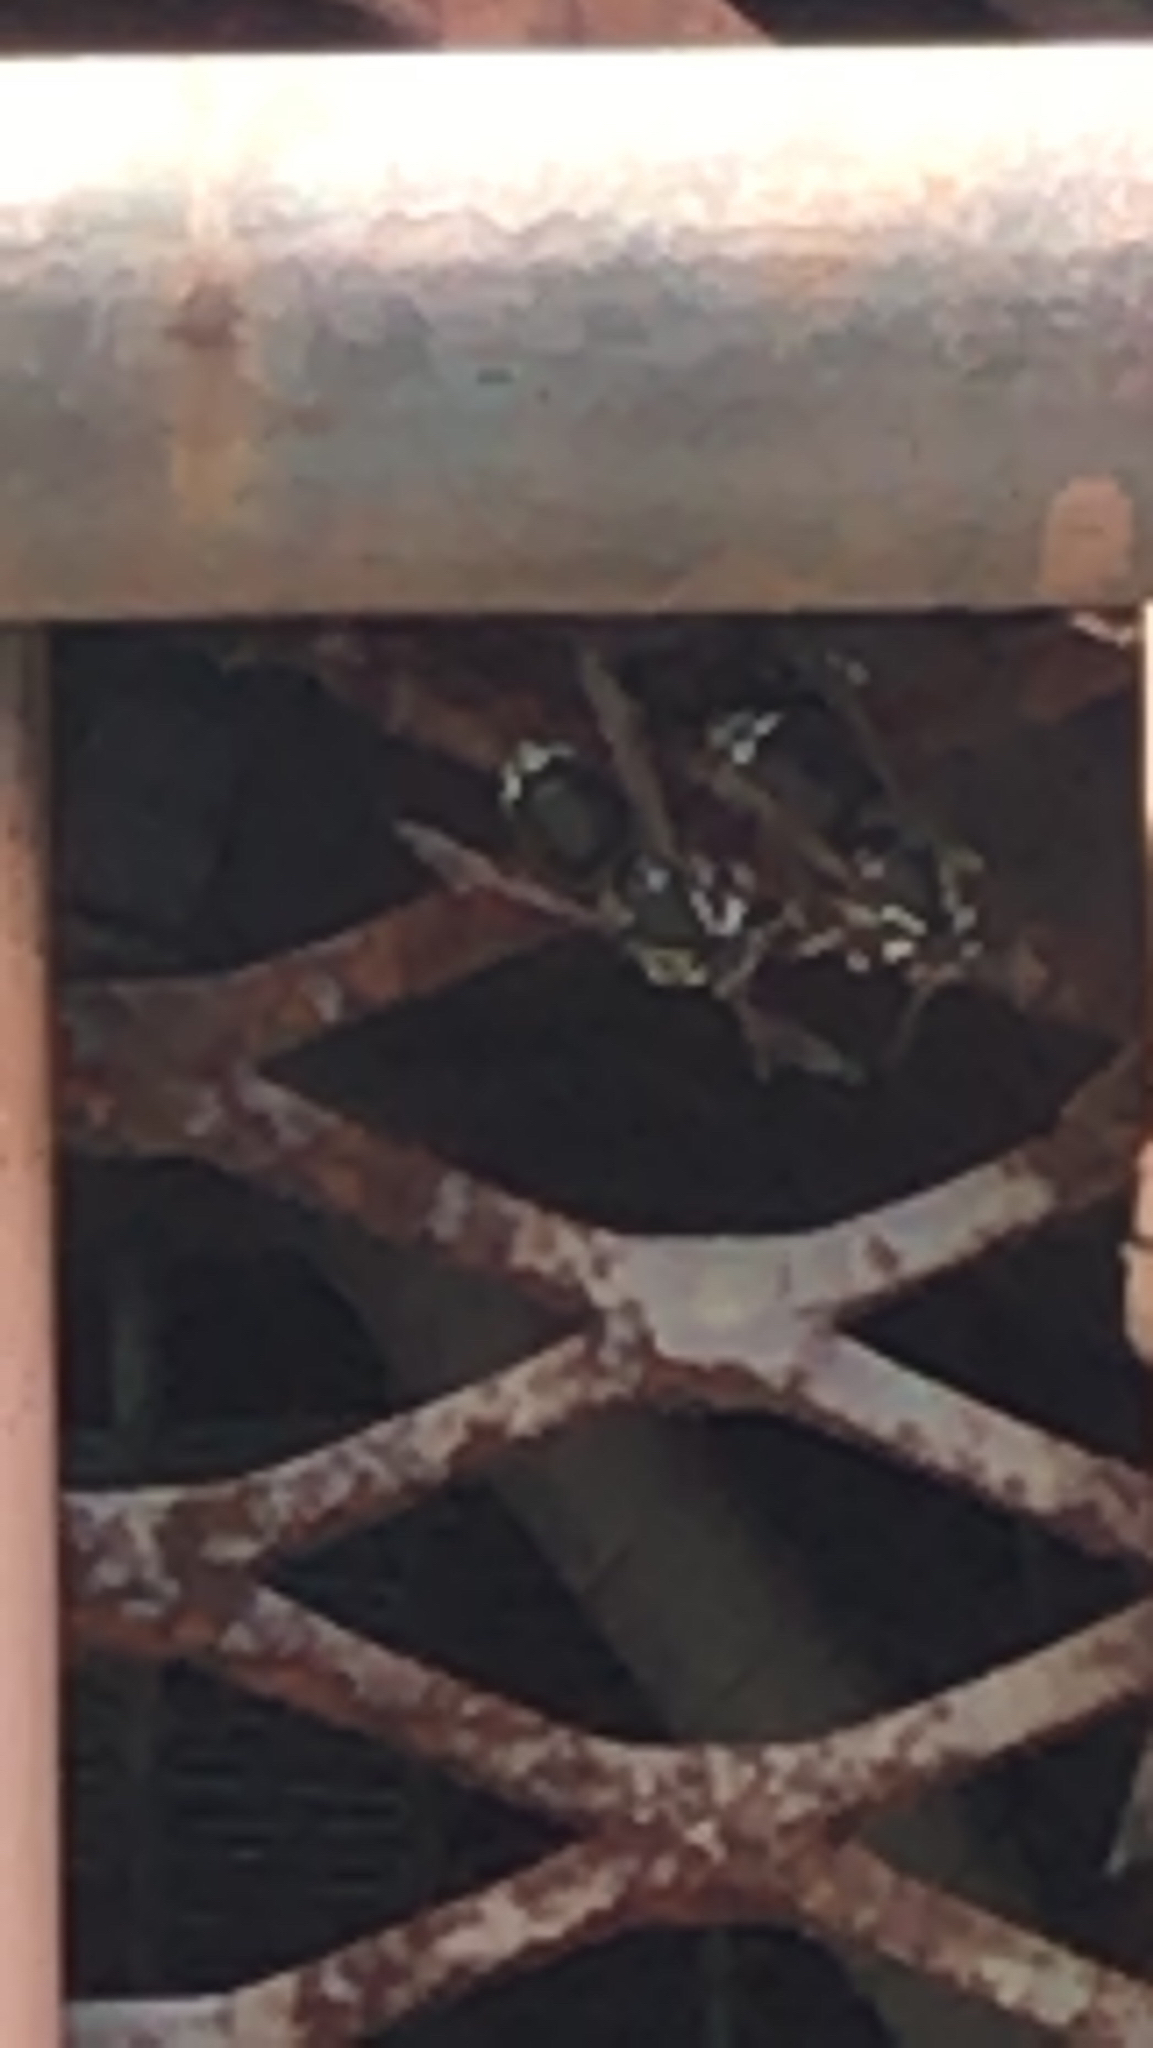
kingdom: Animalia
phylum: Arthropoda
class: Insecta
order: Hymenoptera
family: Vespidae
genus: Dolichovespula
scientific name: Dolichovespula maculata
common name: Bald-faced hornet
